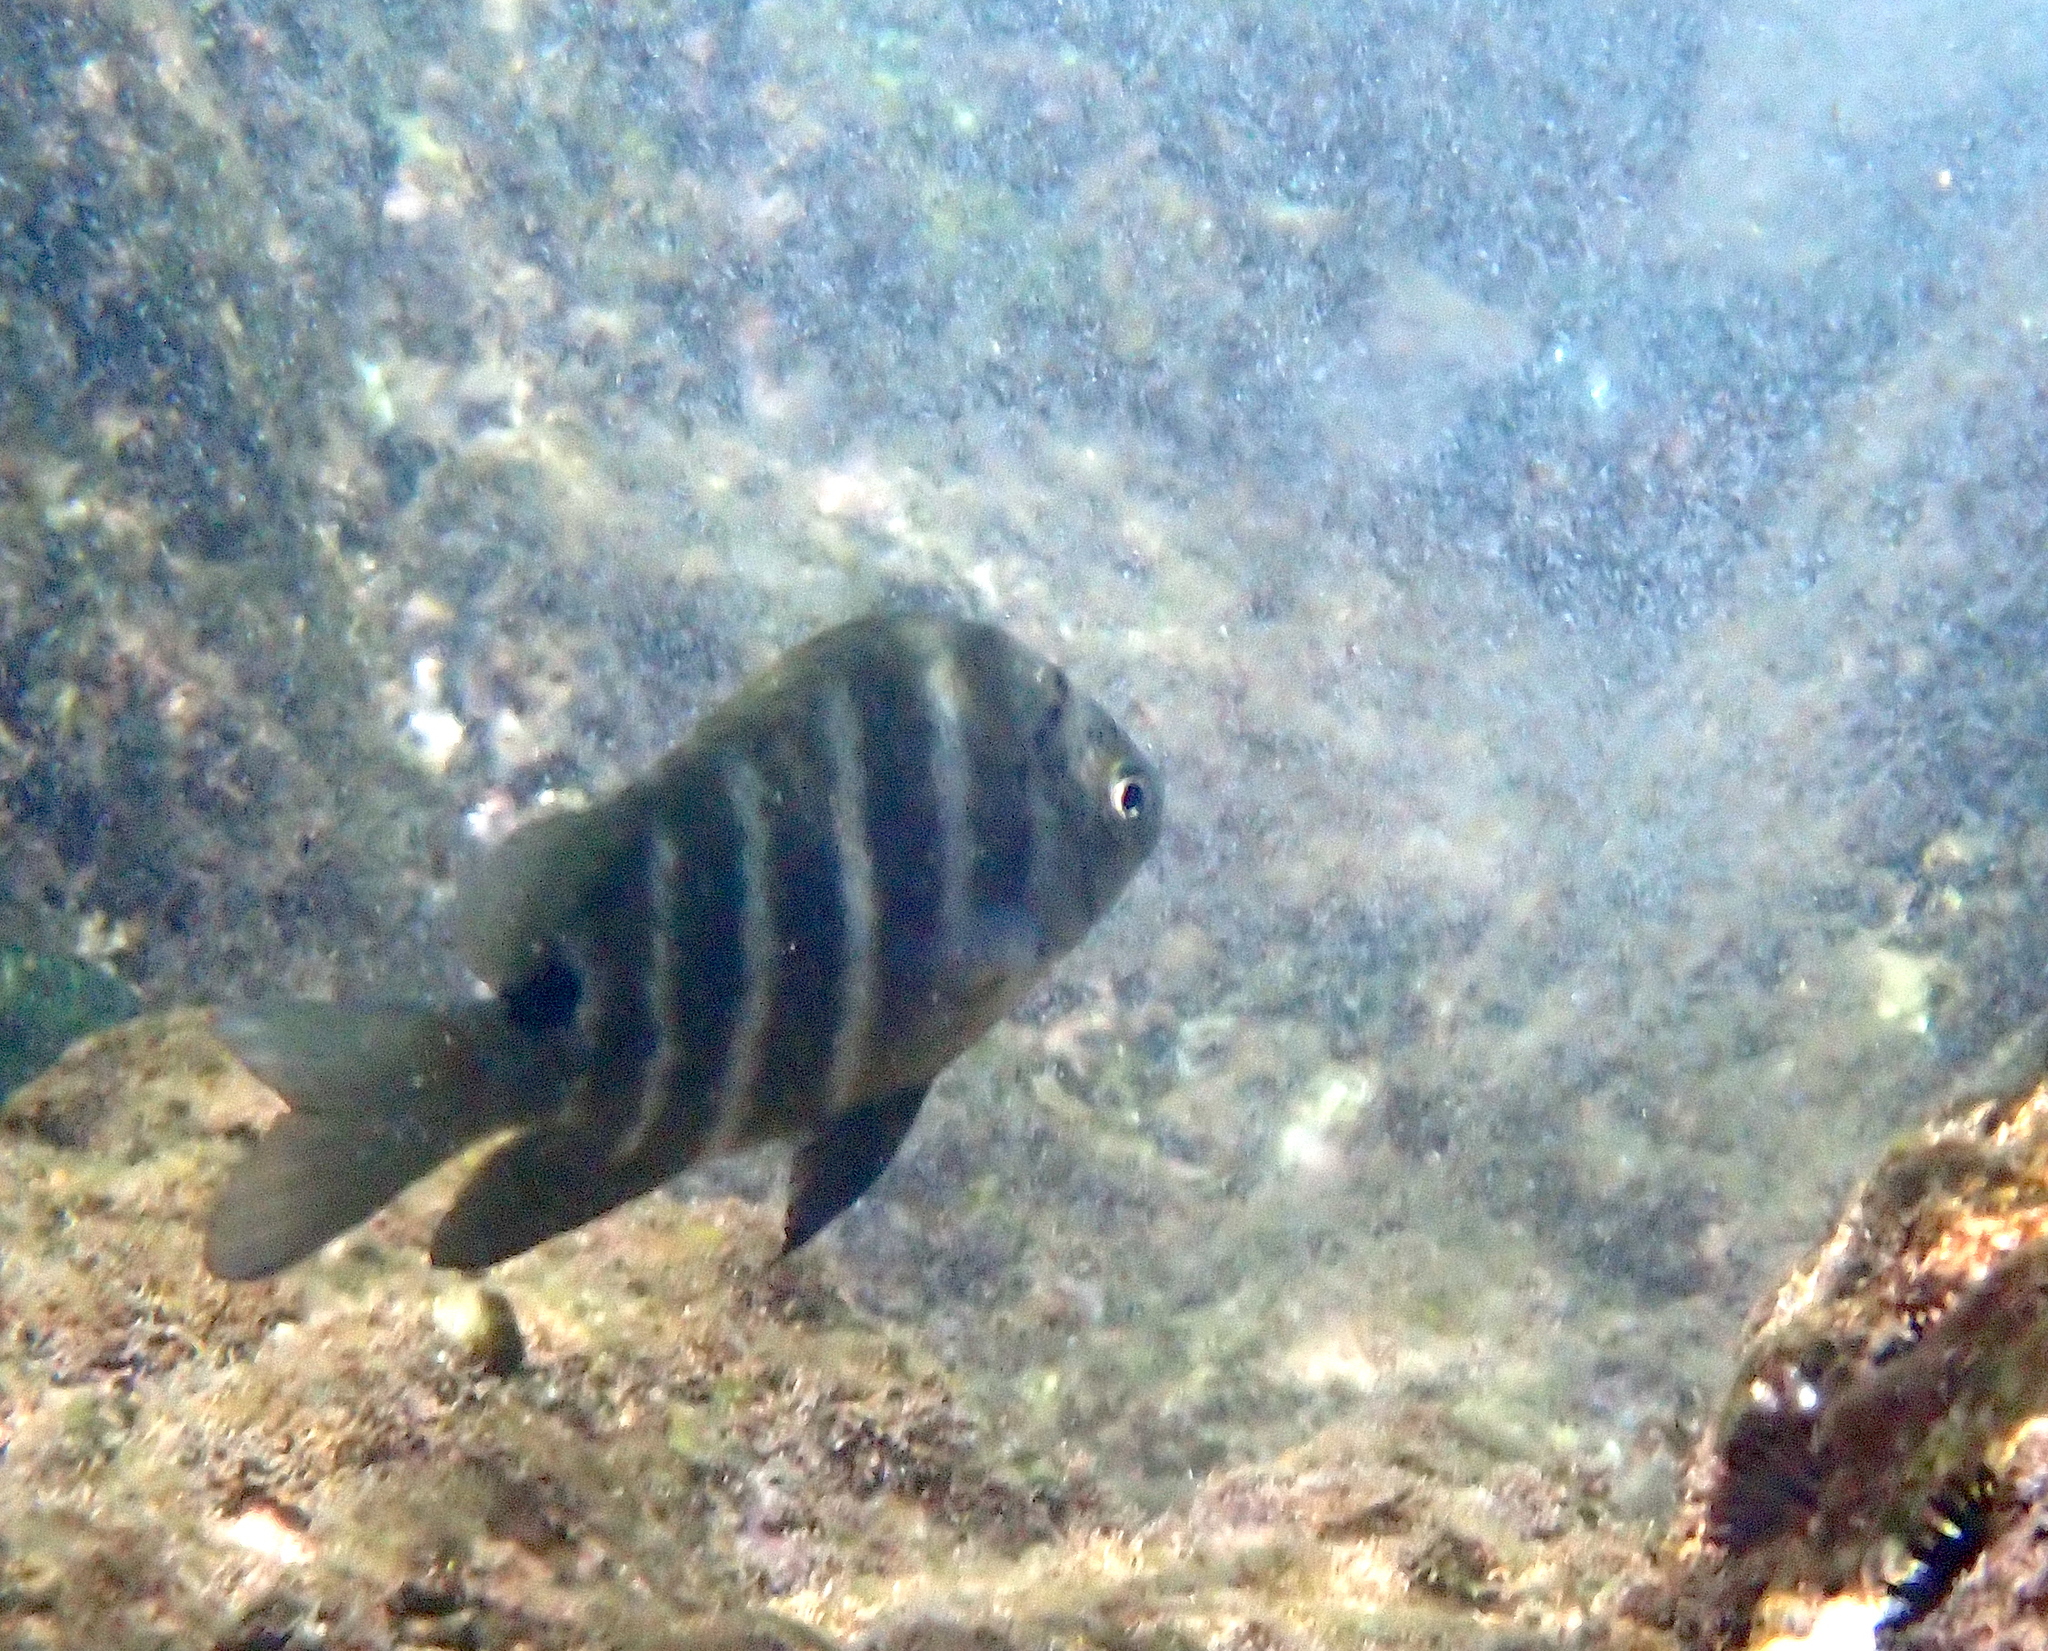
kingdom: Animalia
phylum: Chordata
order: Perciformes
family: Pomacentridae
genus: Abudefduf
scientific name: Abudefduf sordidus
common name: Blackspot sergeant
